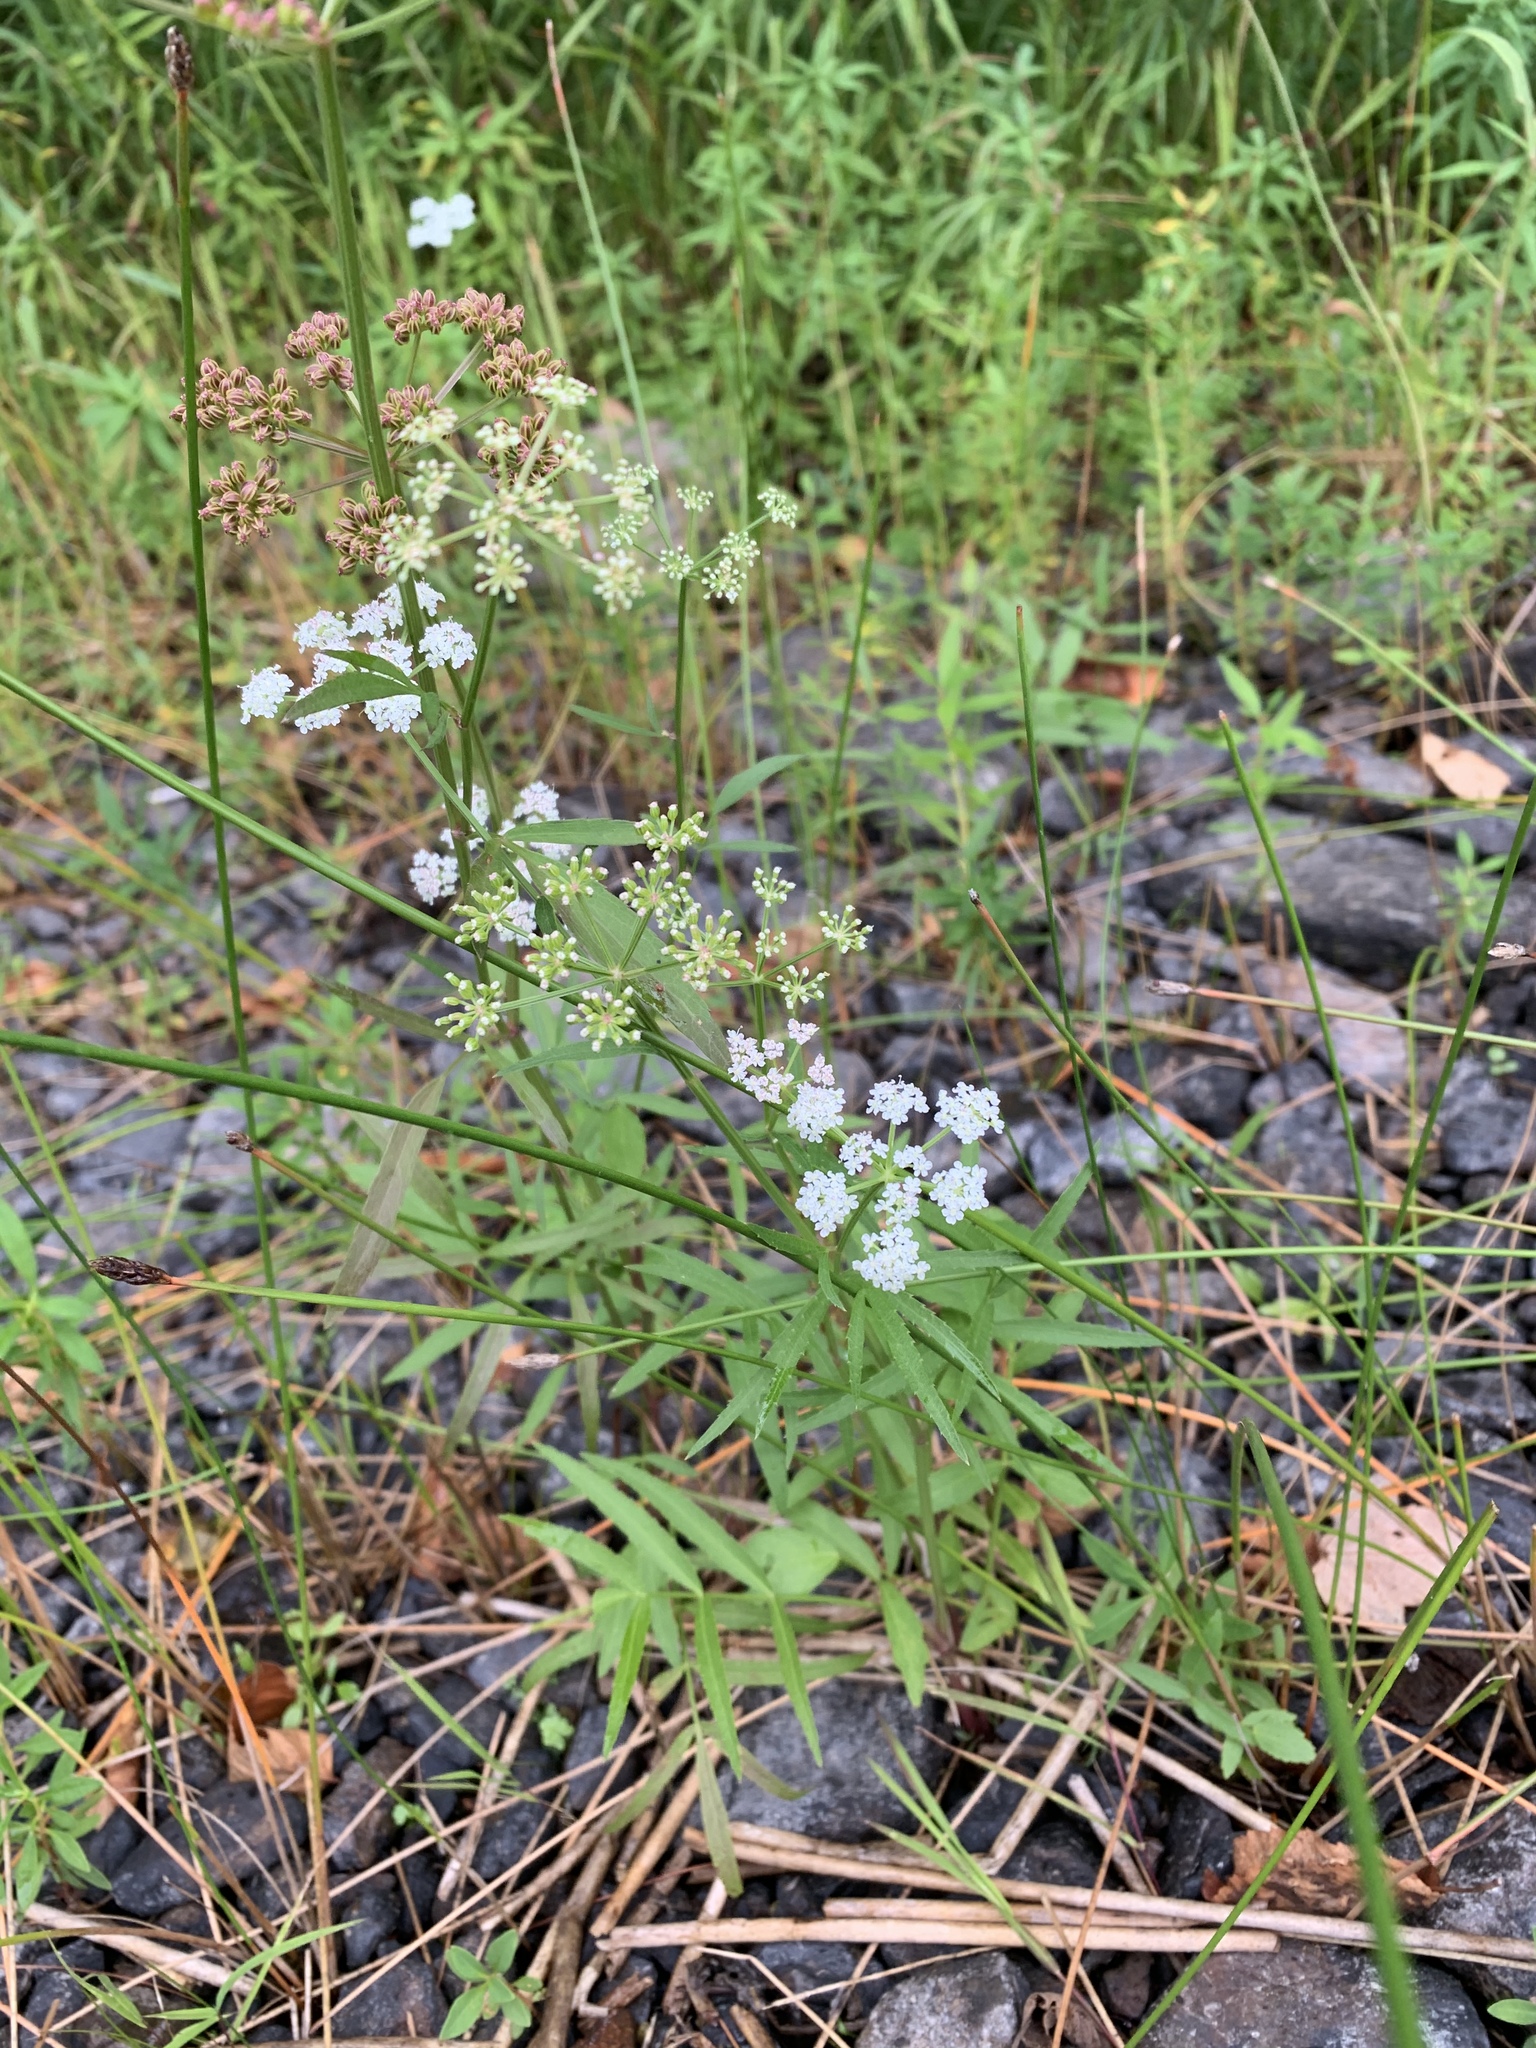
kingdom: Plantae
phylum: Tracheophyta
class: Magnoliopsida
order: Apiales
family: Apiaceae
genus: Sium
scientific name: Sium suave
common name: Hemlock water-parsnip
